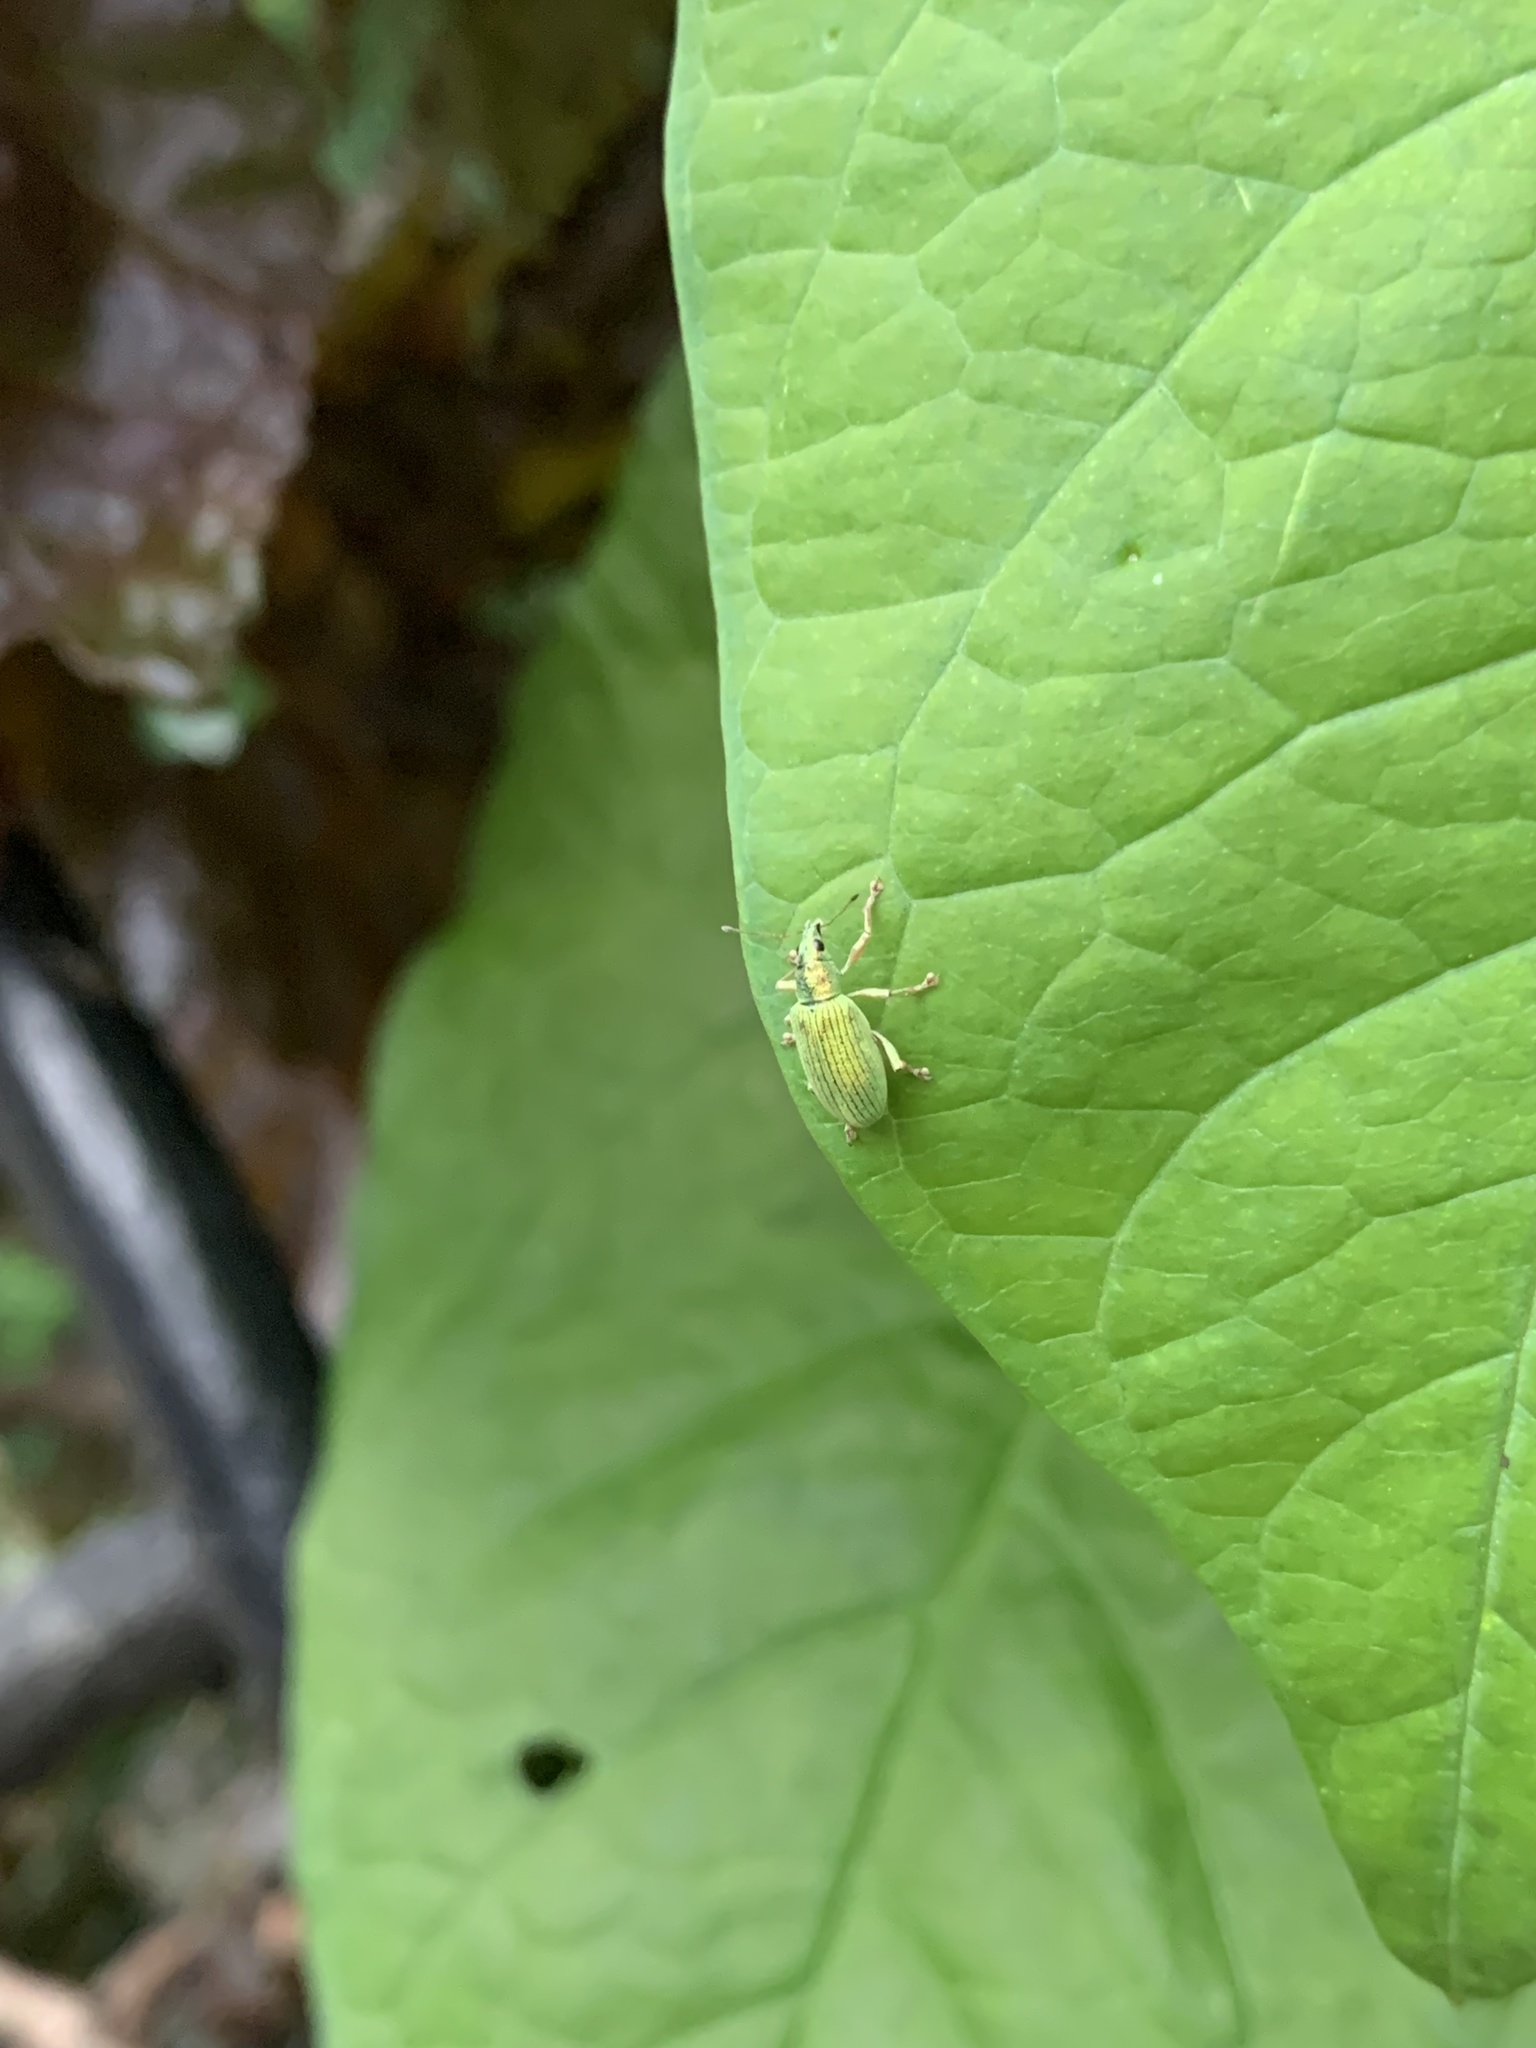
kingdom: Animalia
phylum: Arthropoda
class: Insecta
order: Coleoptera
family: Curculionidae
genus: Polydrusus
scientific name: Polydrusus formosus
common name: Weevil
